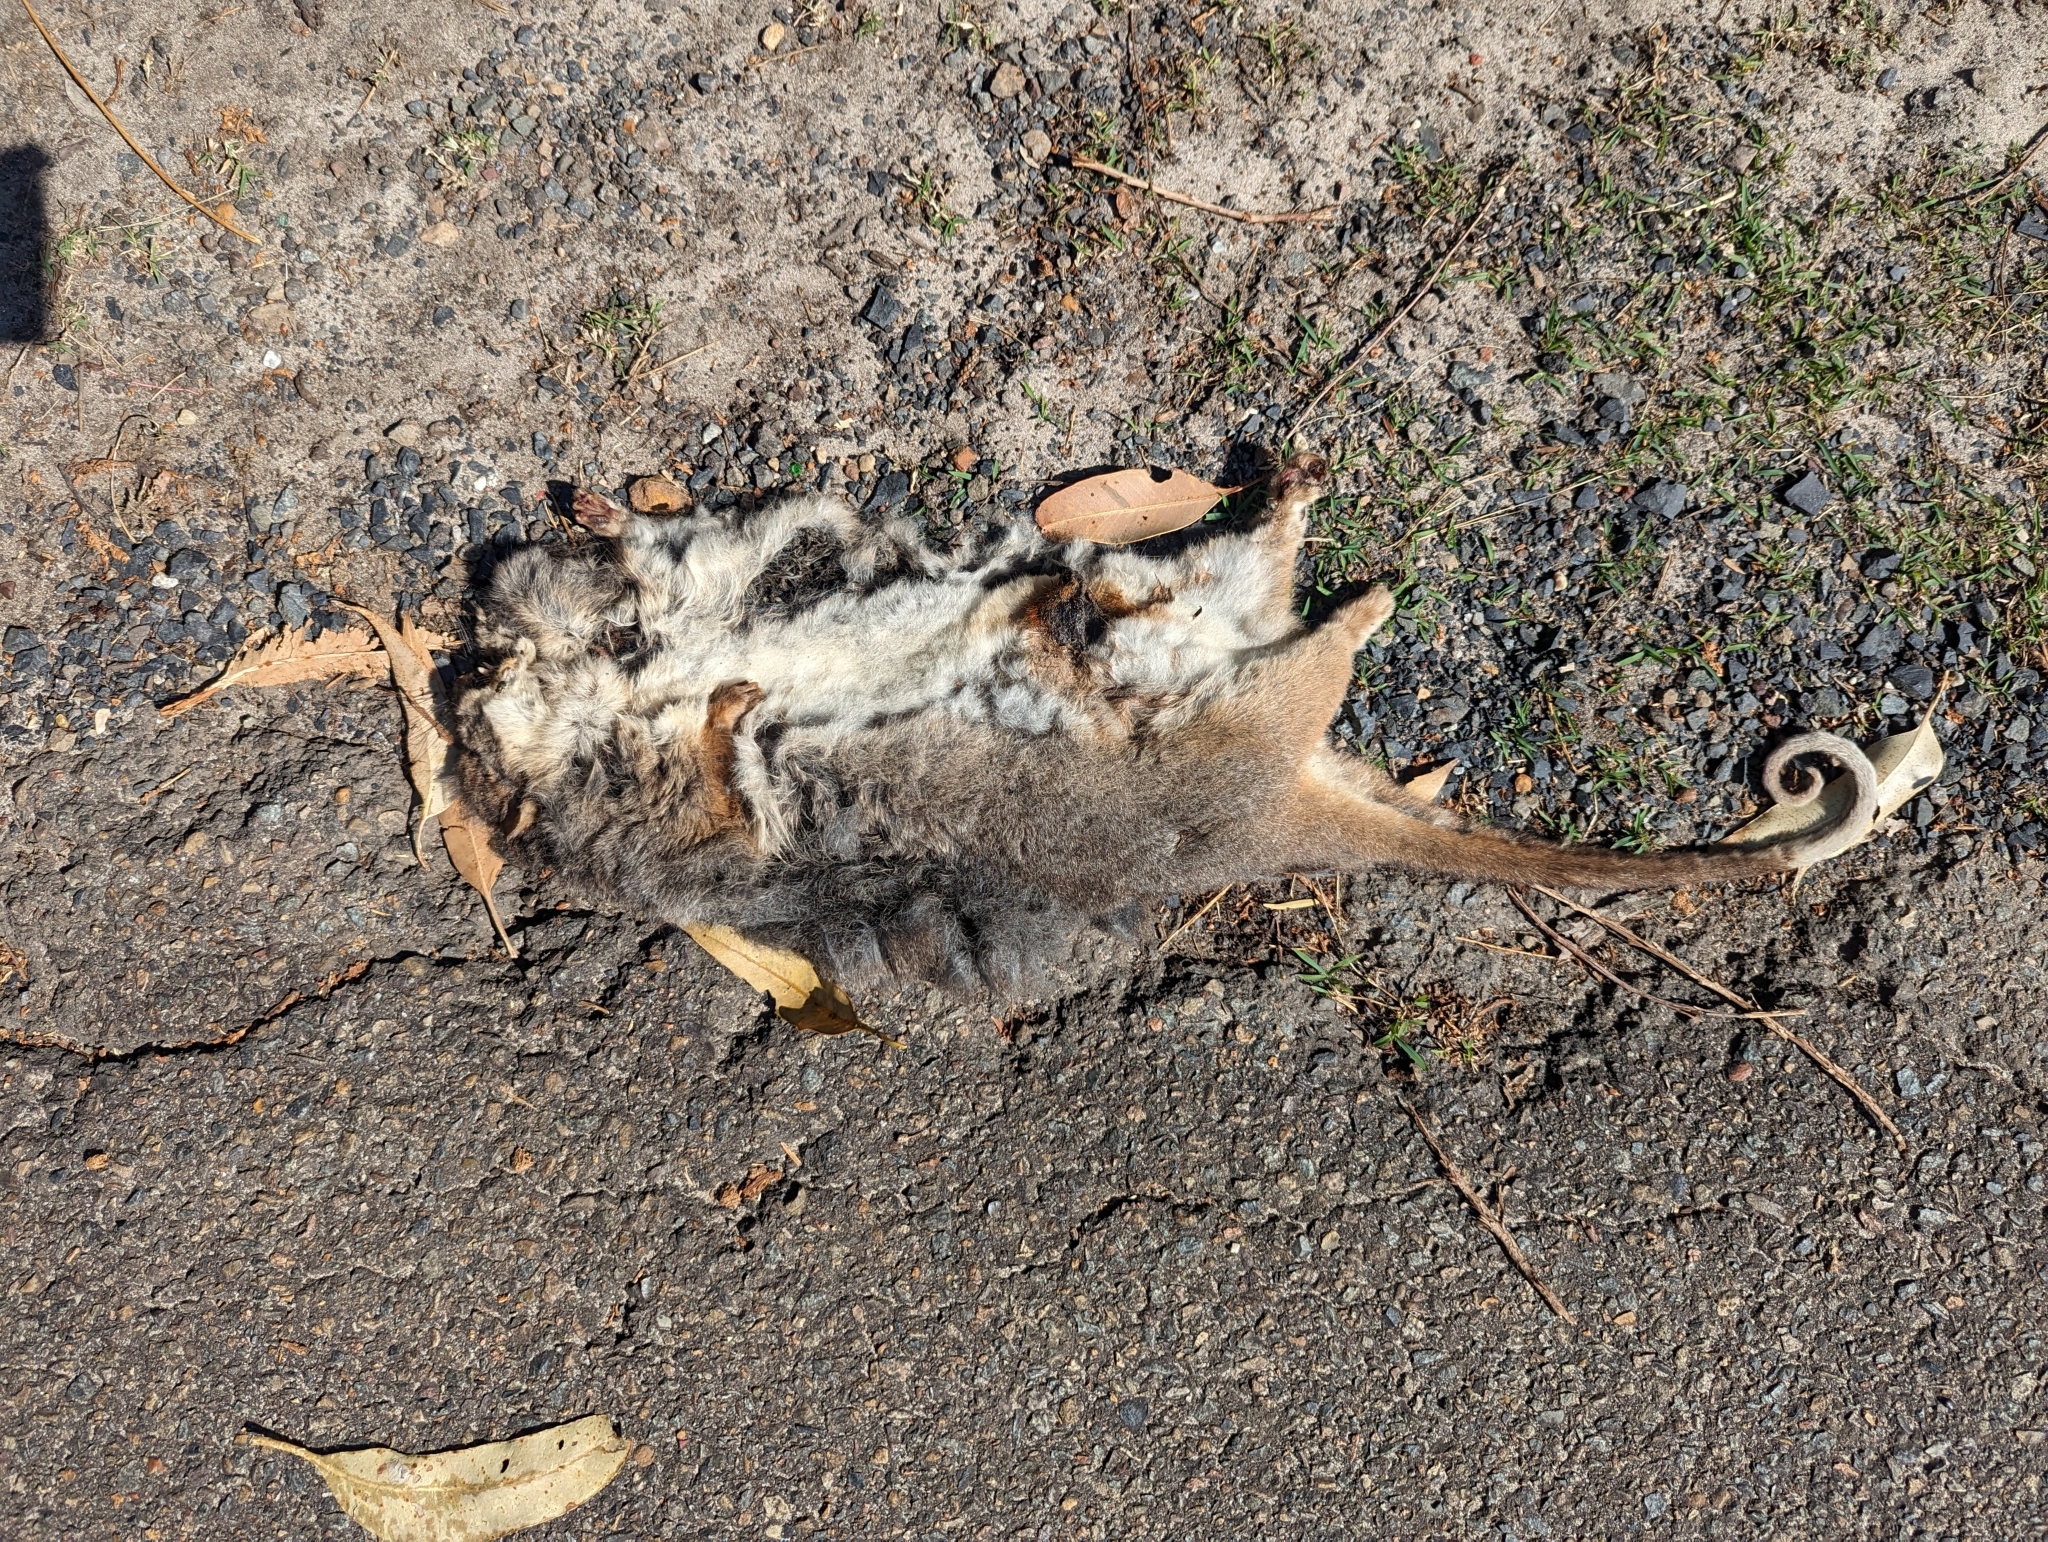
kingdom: Animalia
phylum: Chordata
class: Mammalia
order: Diprotodontia
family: Pseudocheiridae
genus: Pseudocheirus
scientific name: Pseudocheirus peregrinus
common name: Common ringtail possum
